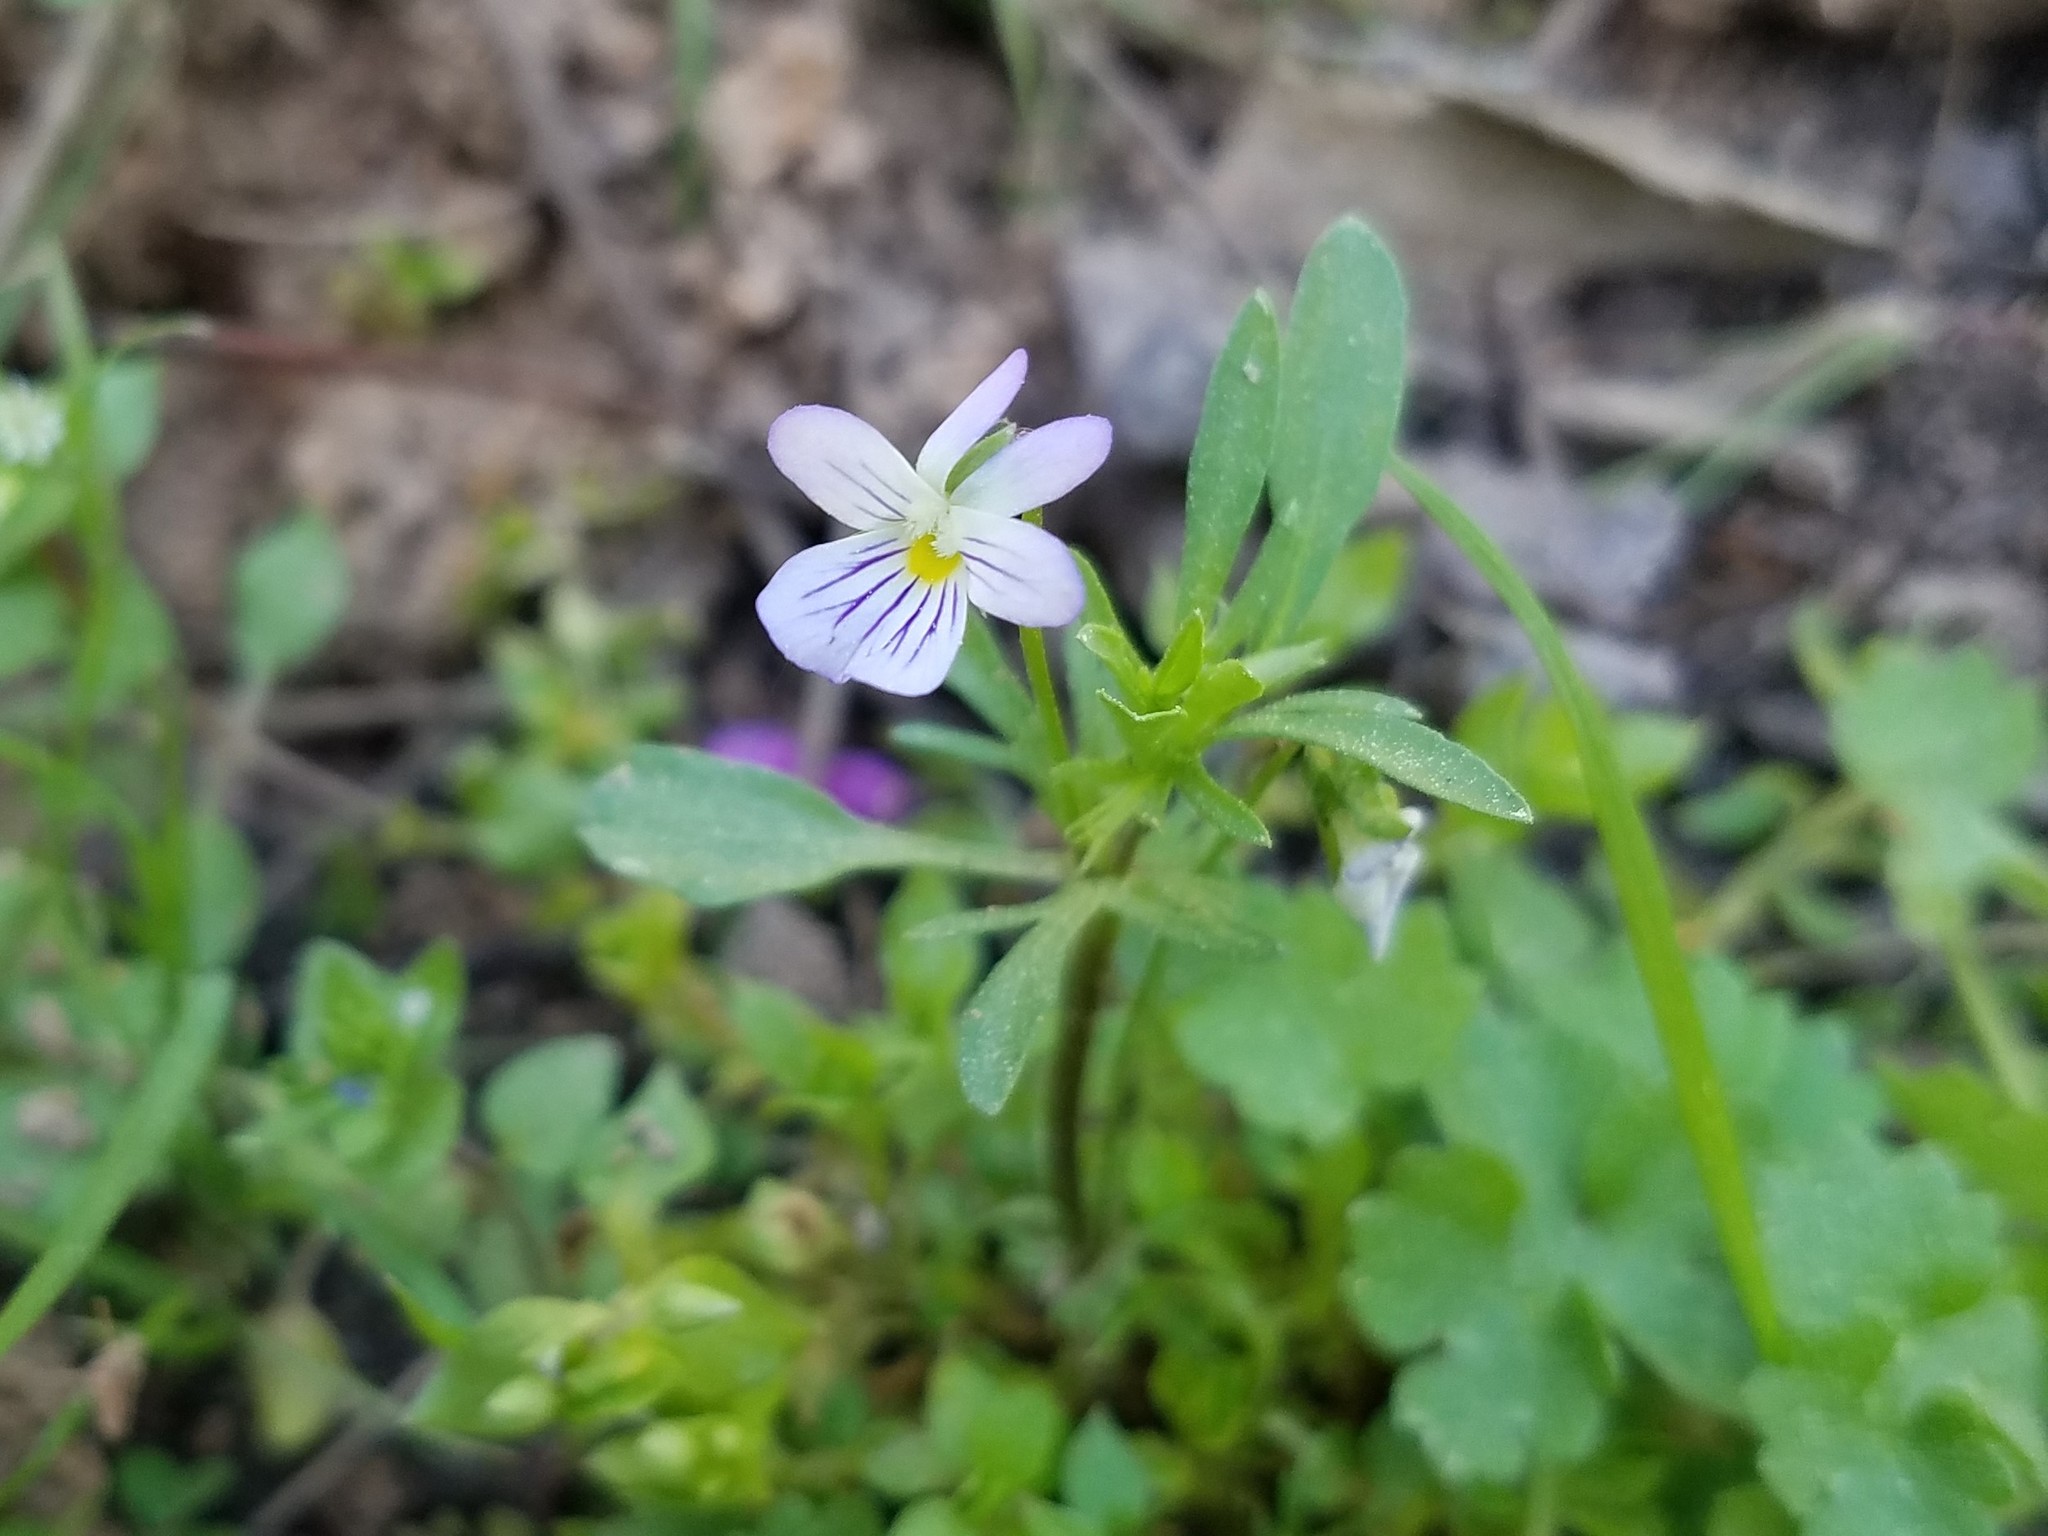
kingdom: Plantae
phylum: Tracheophyta
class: Magnoliopsida
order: Malpighiales
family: Violaceae
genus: Viola
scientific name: Viola rafinesquei
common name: American field pansy
